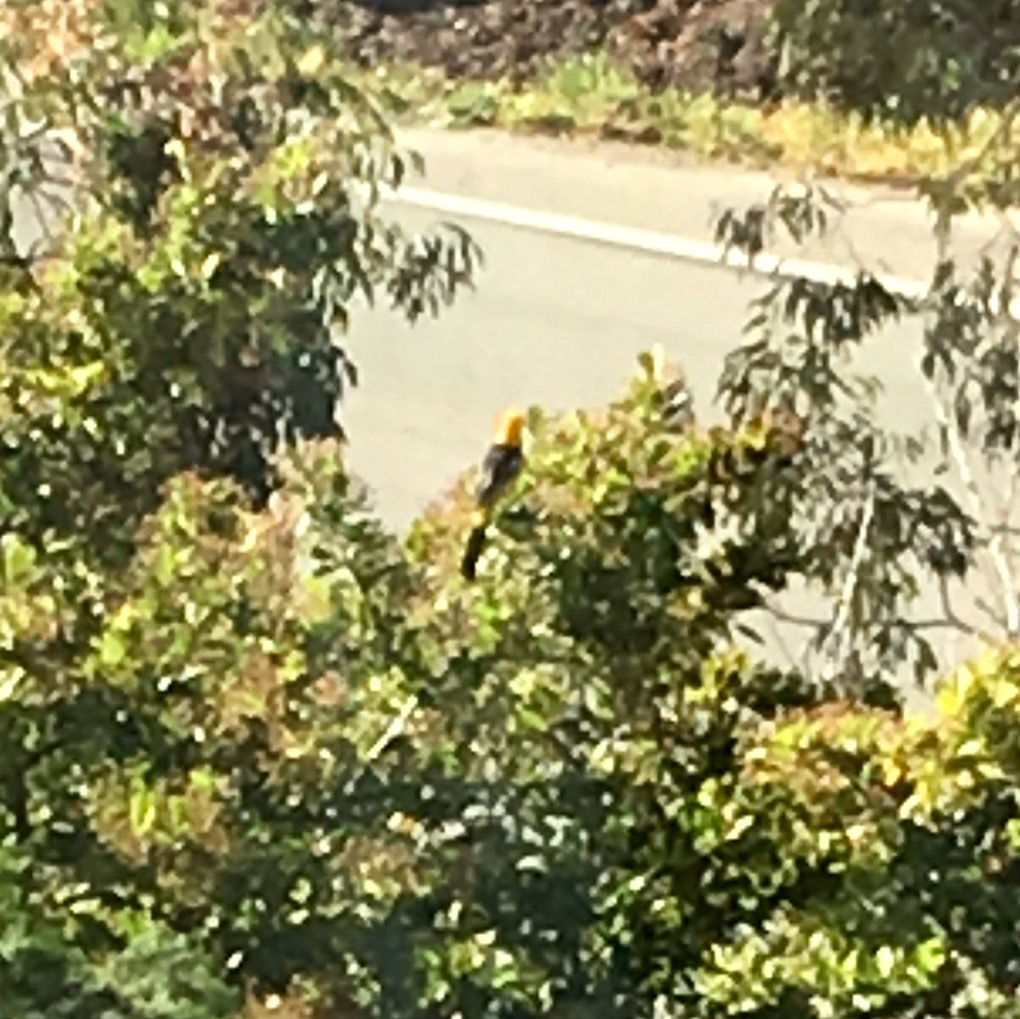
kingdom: Animalia
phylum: Chordata
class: Aves
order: Passeriformes
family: Icteridae
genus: Icterus
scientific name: Icterus cucullatus
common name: Hooded oriole
